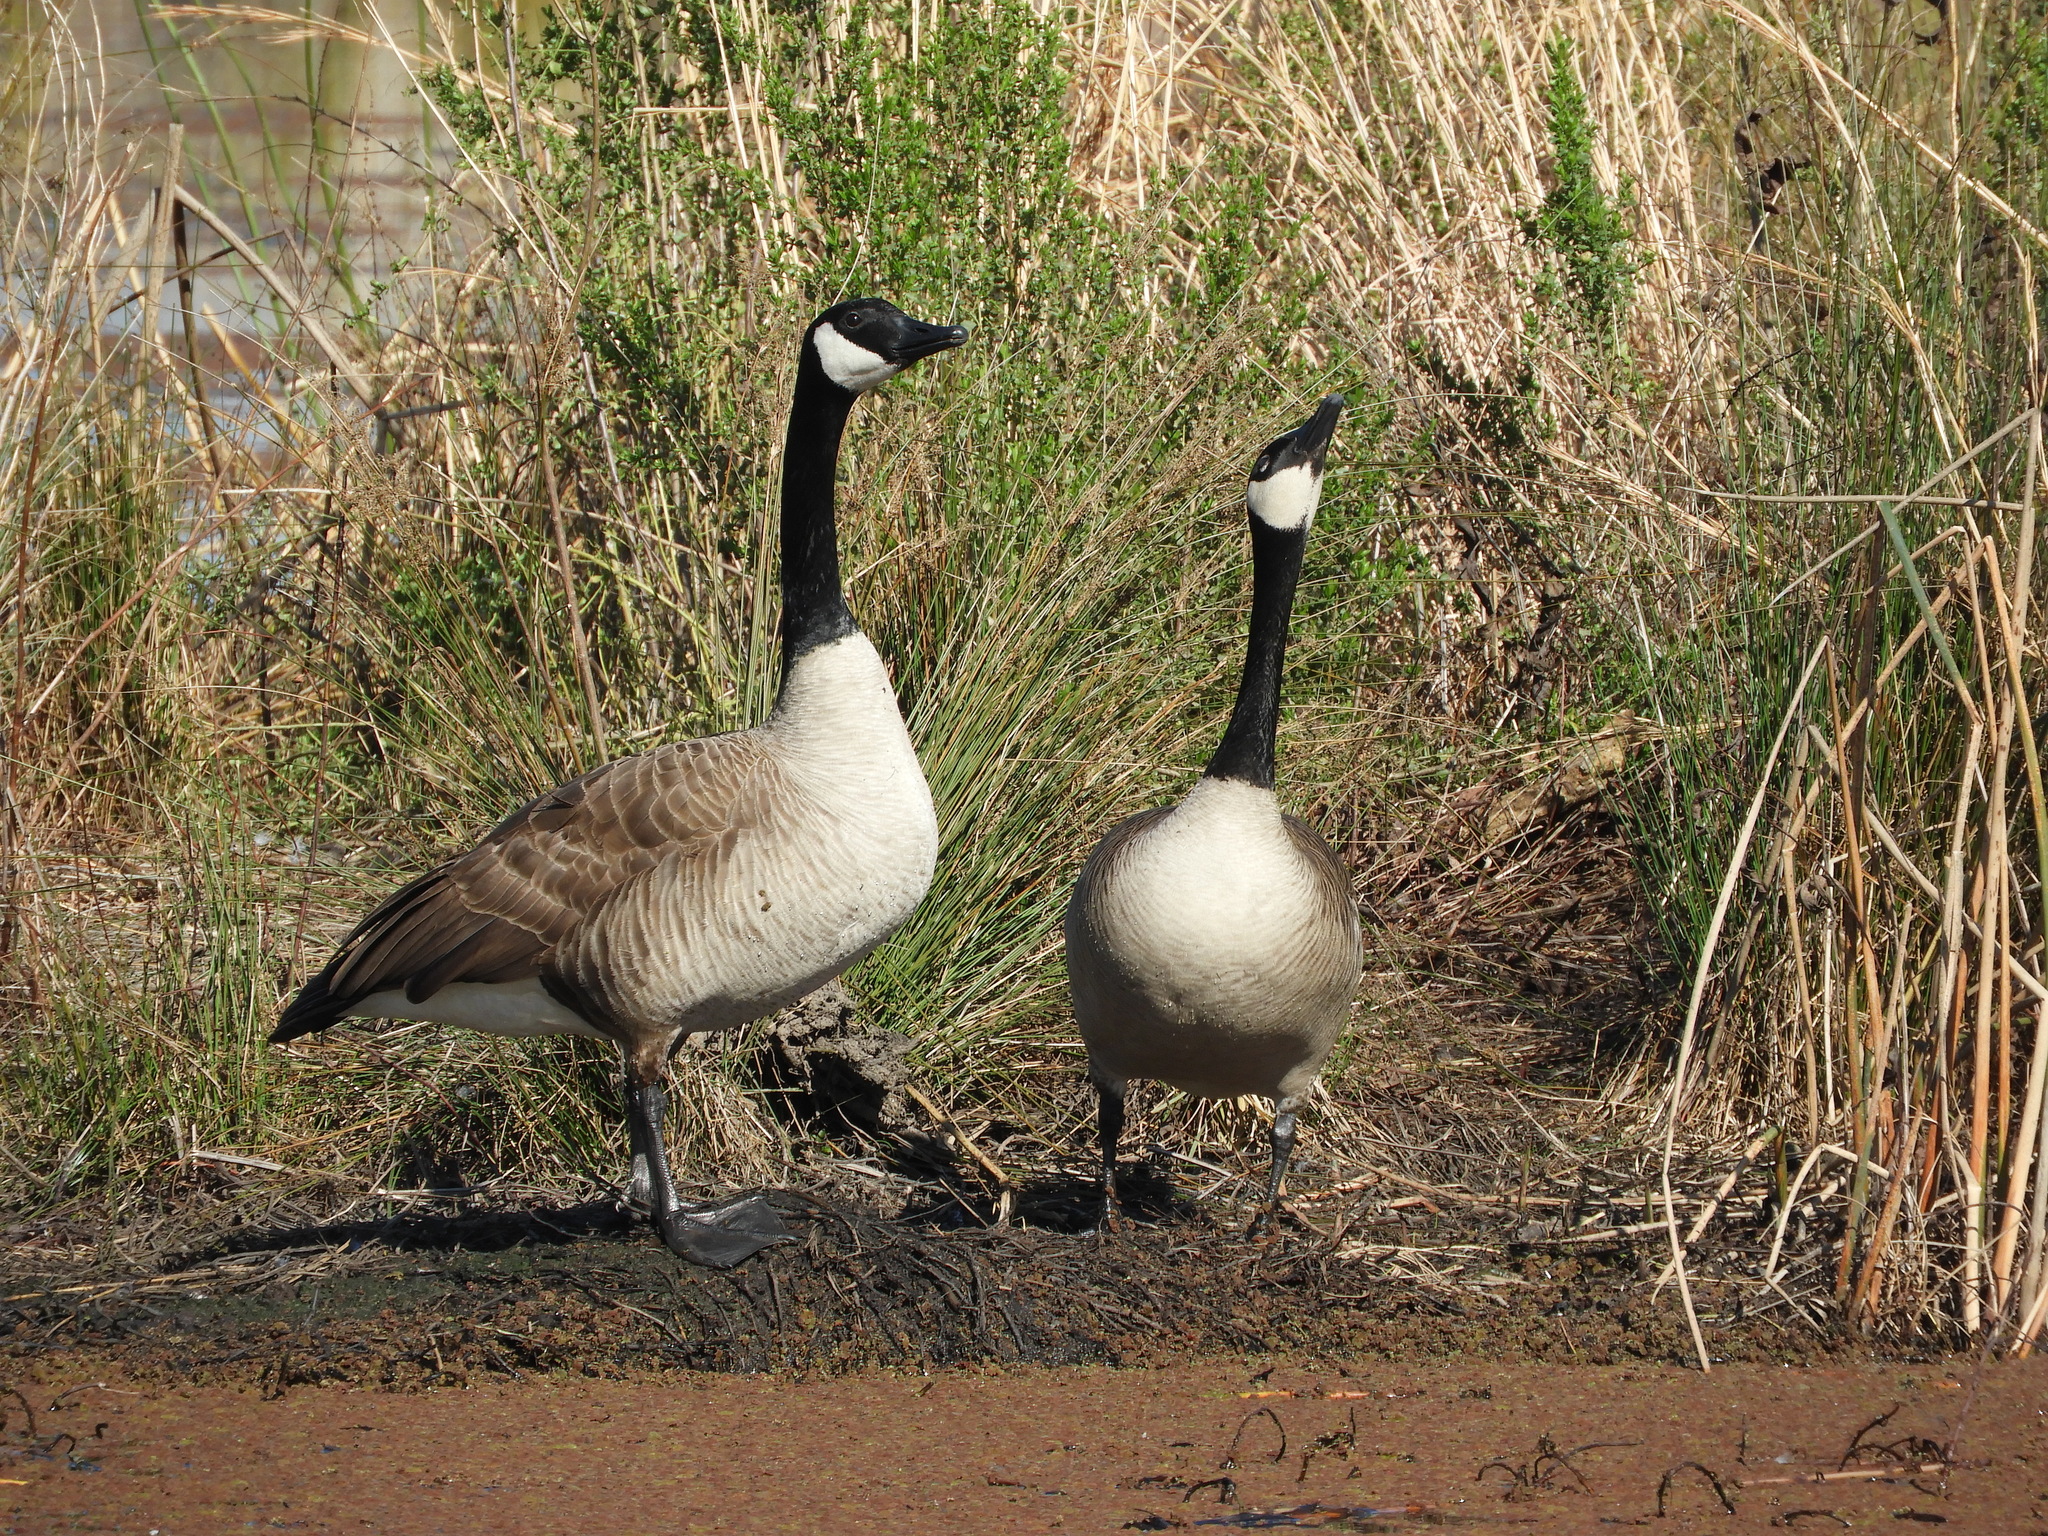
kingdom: Animalia
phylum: Chordata
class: Aves
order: Anseriformes
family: Anatidae
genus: Branta
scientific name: Branta canadensis
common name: Canada goose
